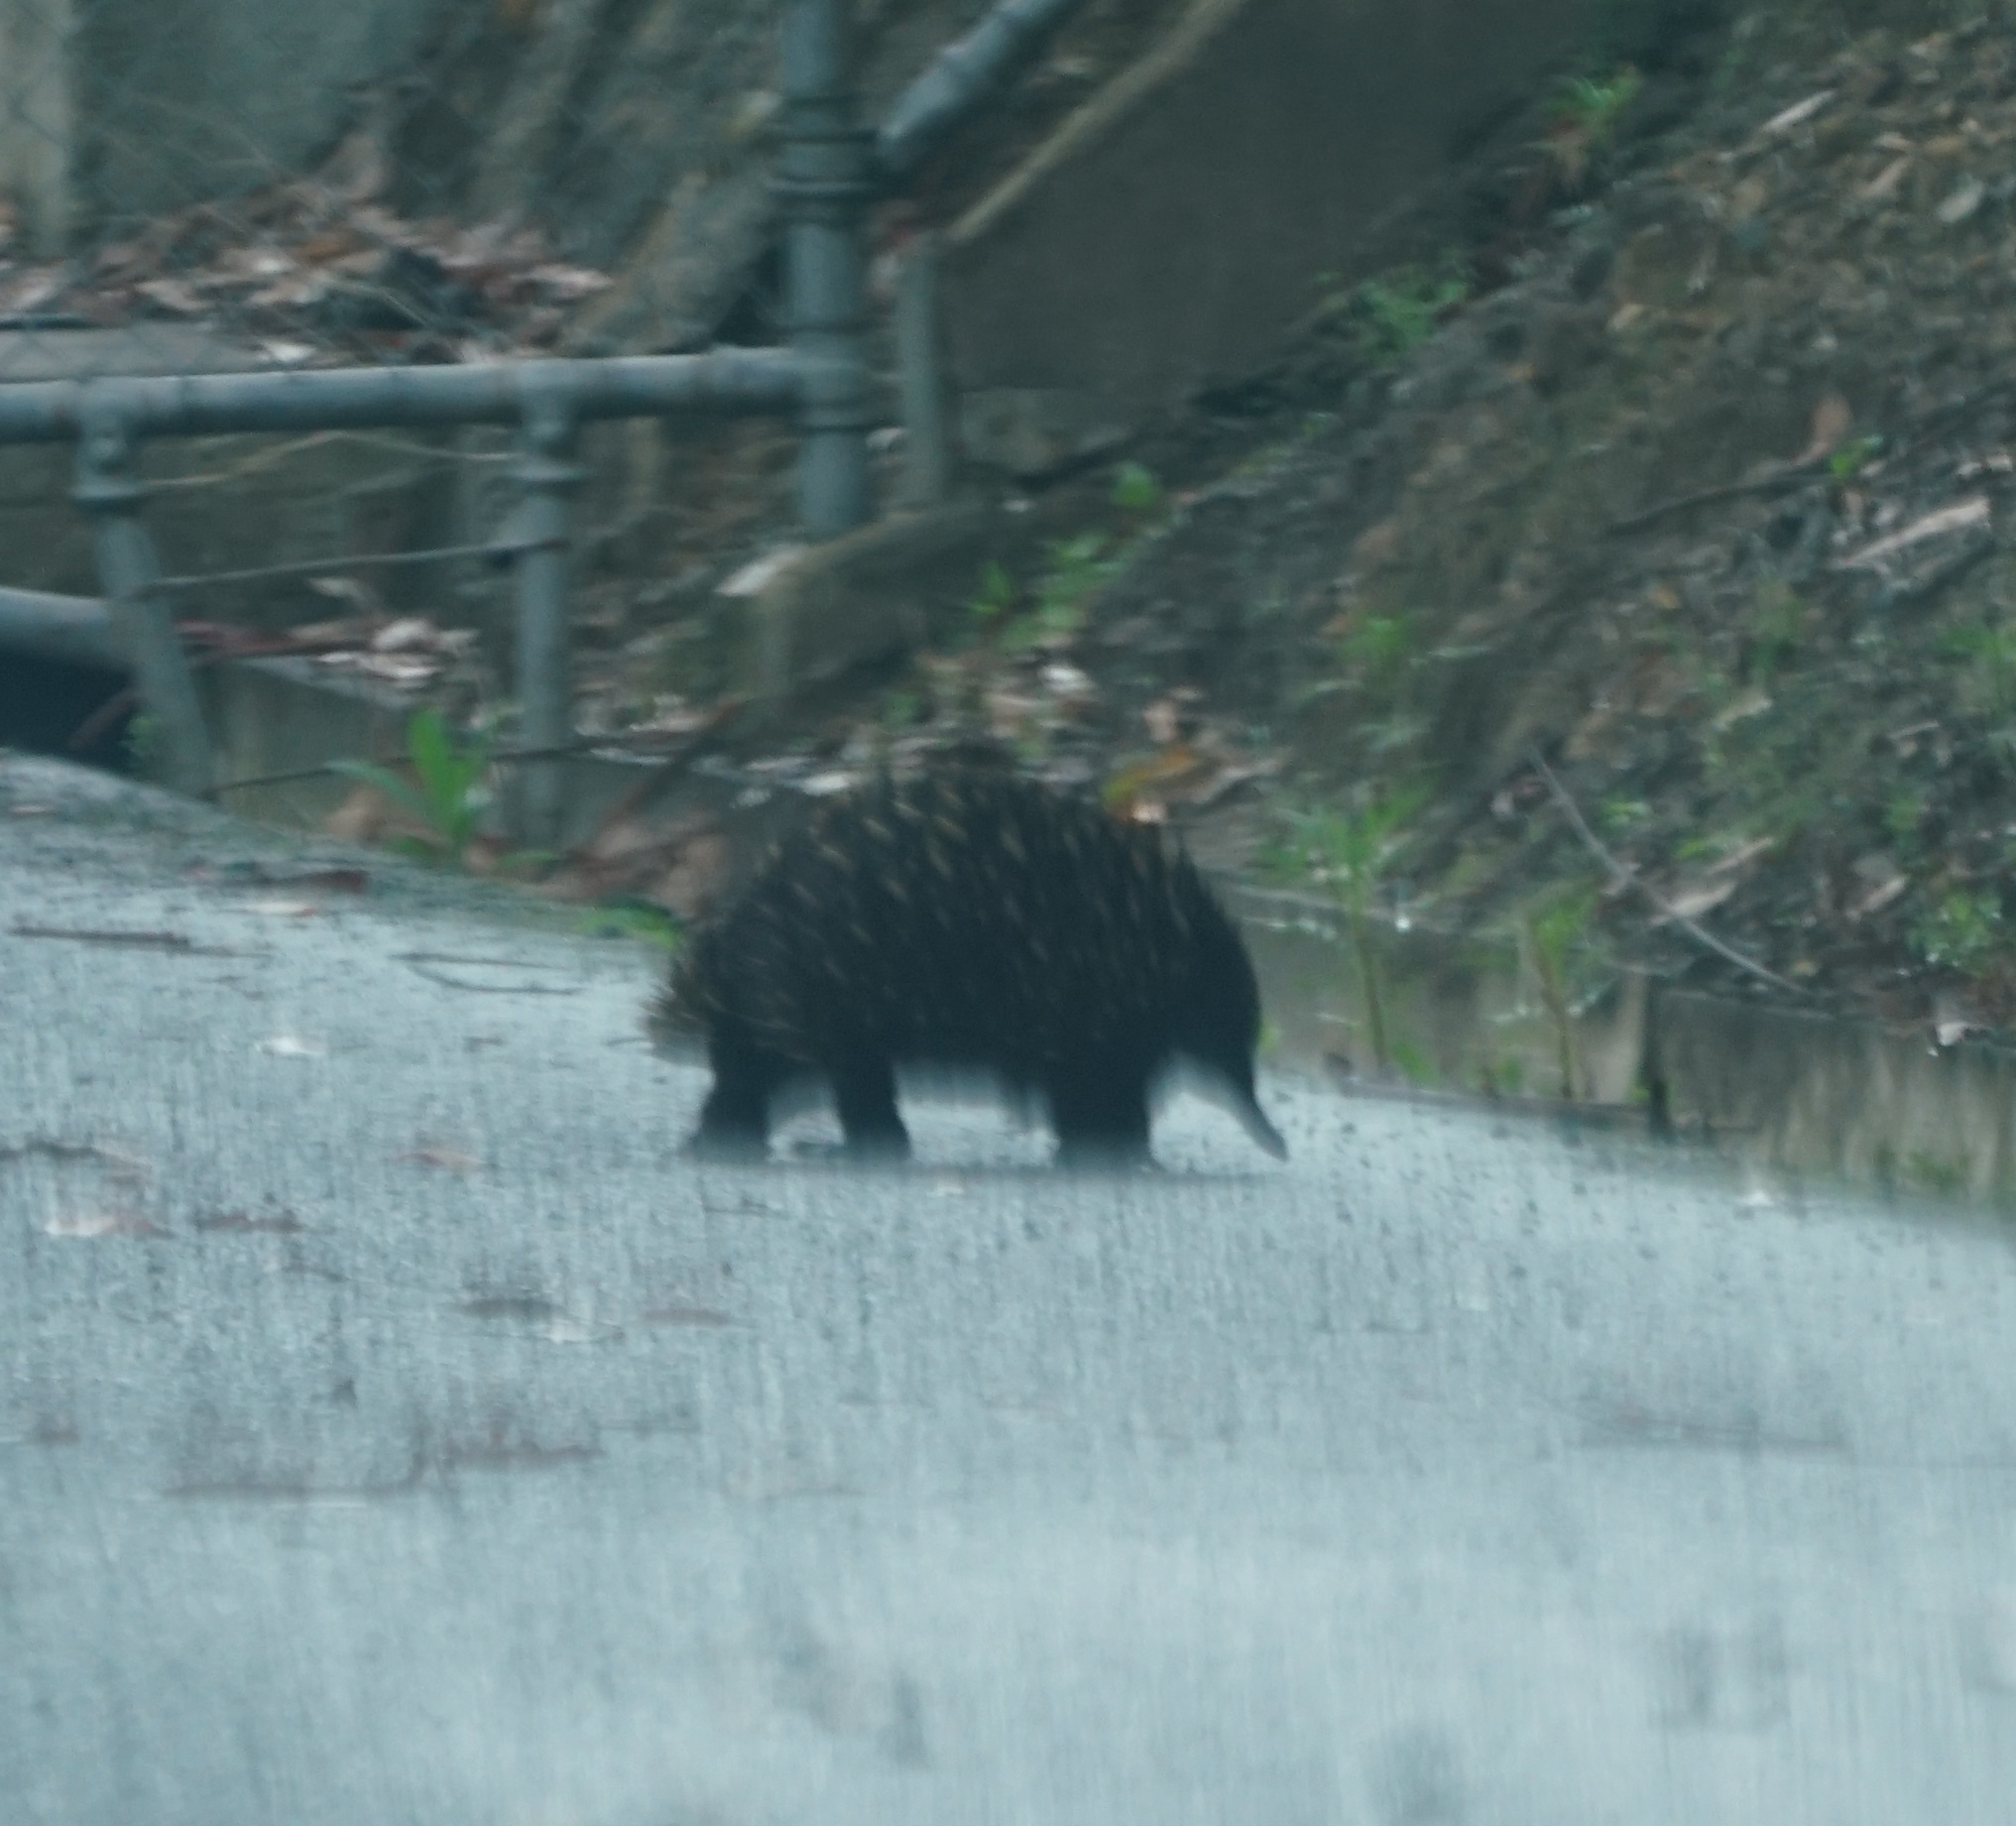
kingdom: Animalia
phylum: Chordata
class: Mammalia
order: Monotremata
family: Tachyglossidae
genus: Tachyglossus
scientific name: Tachyglossus aculeatus
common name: Short-beaked echidna
